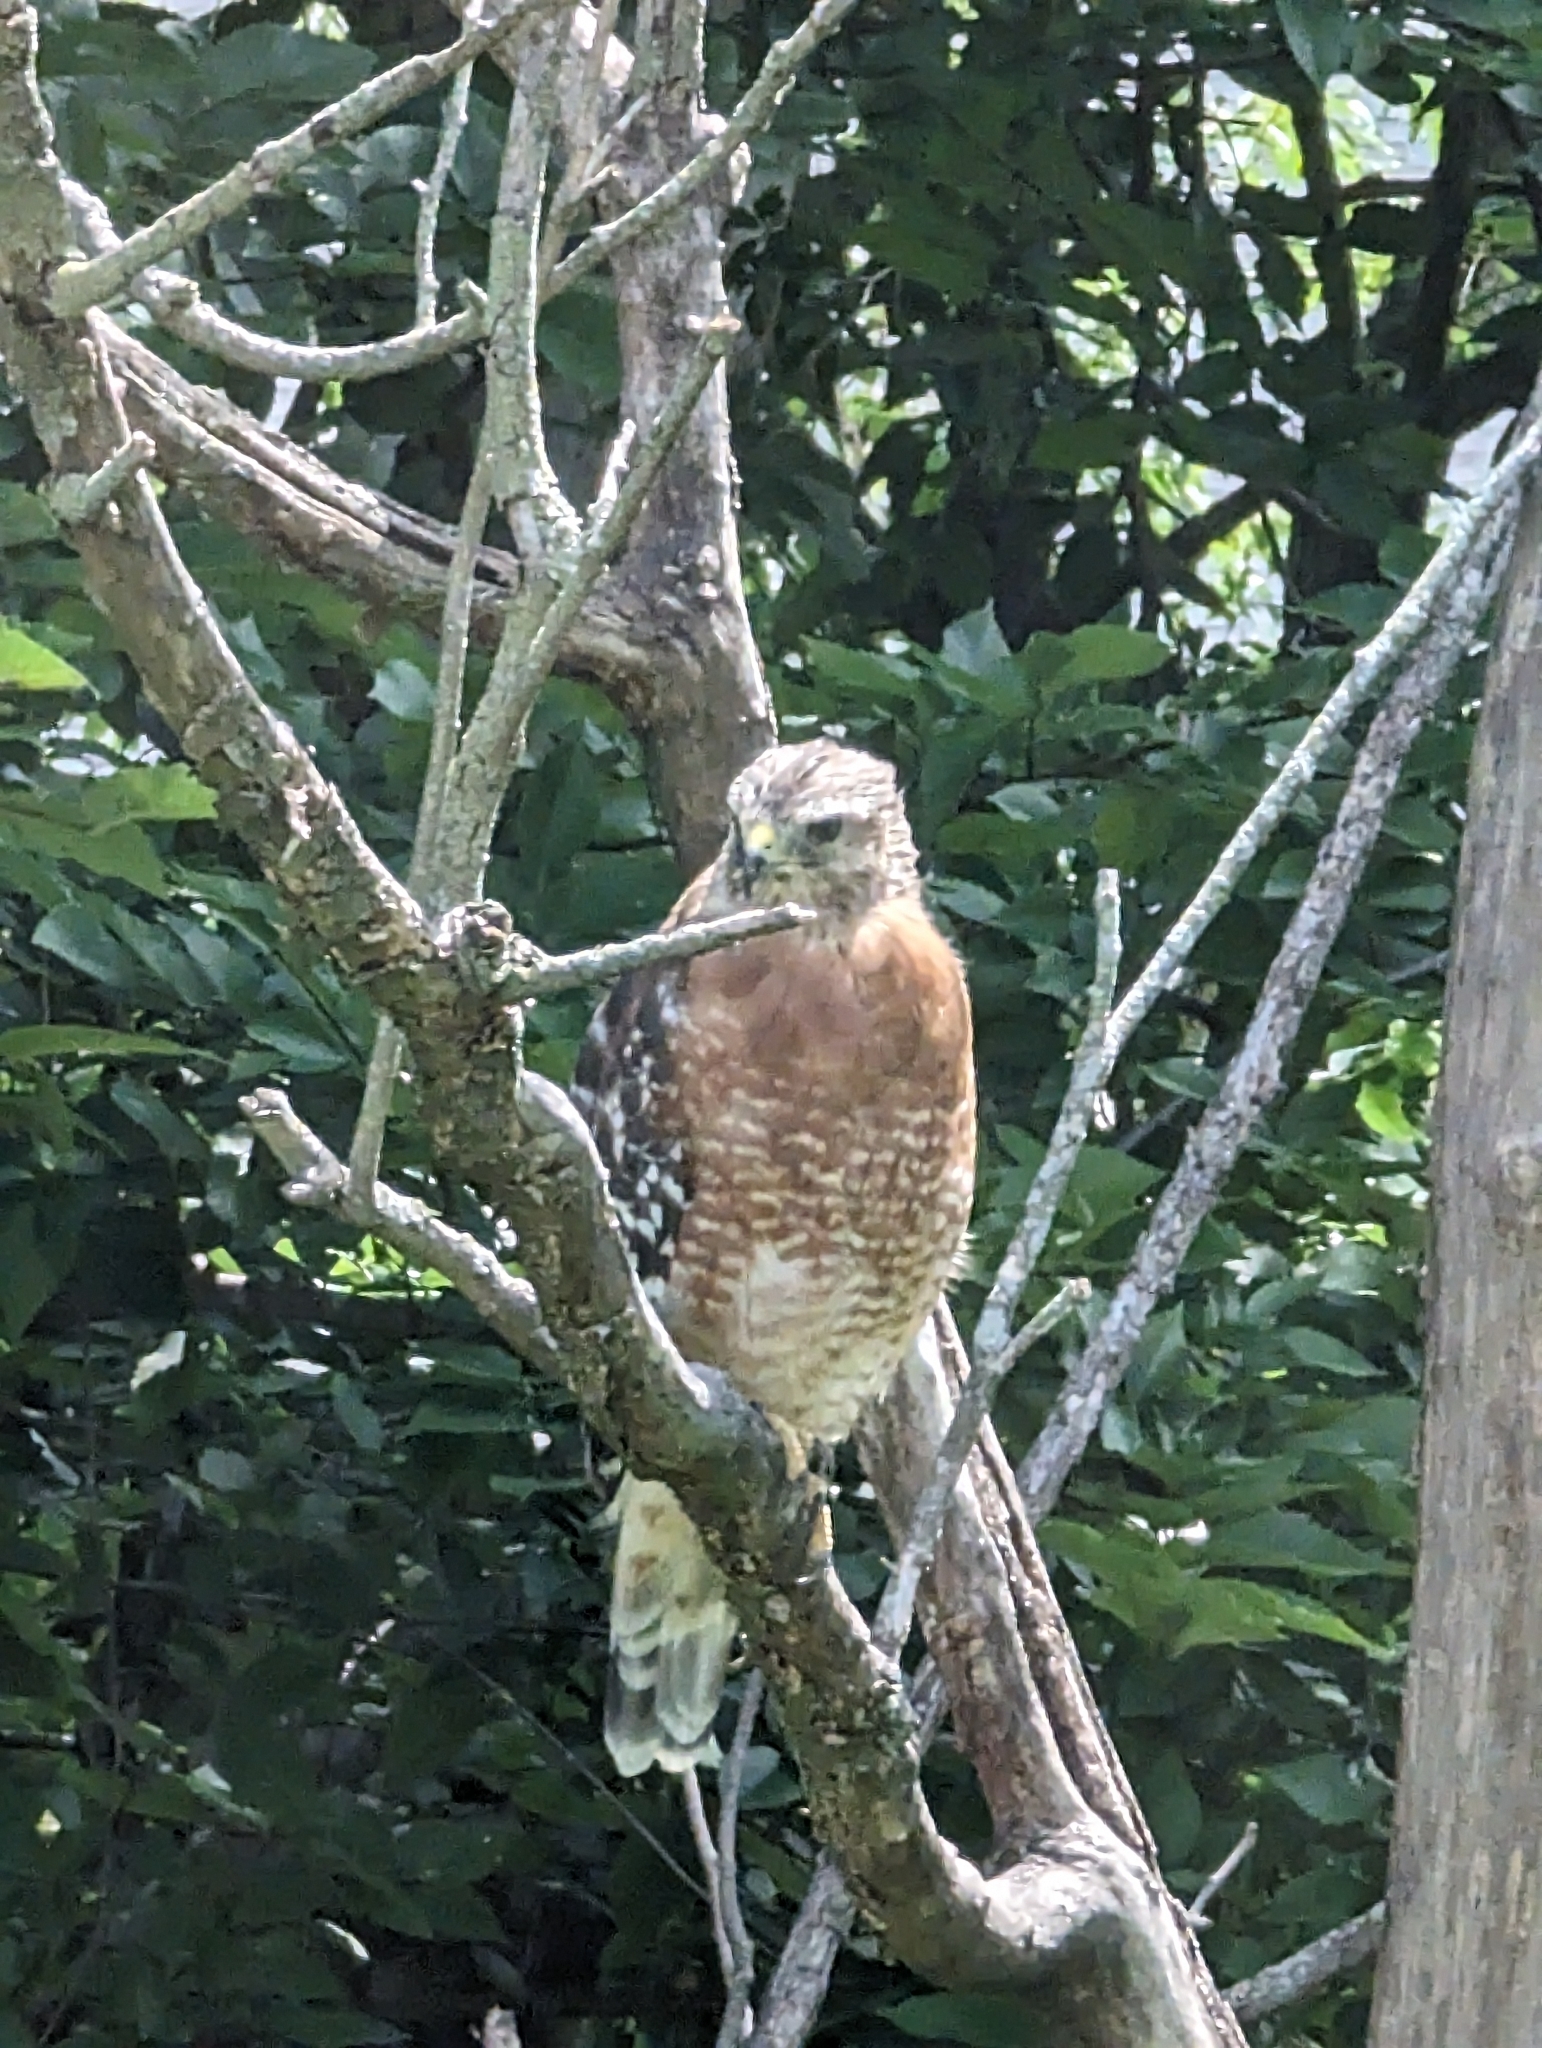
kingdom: Animalia
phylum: Chordata
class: Aves
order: Accipitriformes
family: Accipitridae
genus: Buteo
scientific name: Buteo lineatus
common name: Red-shouldered hawk
